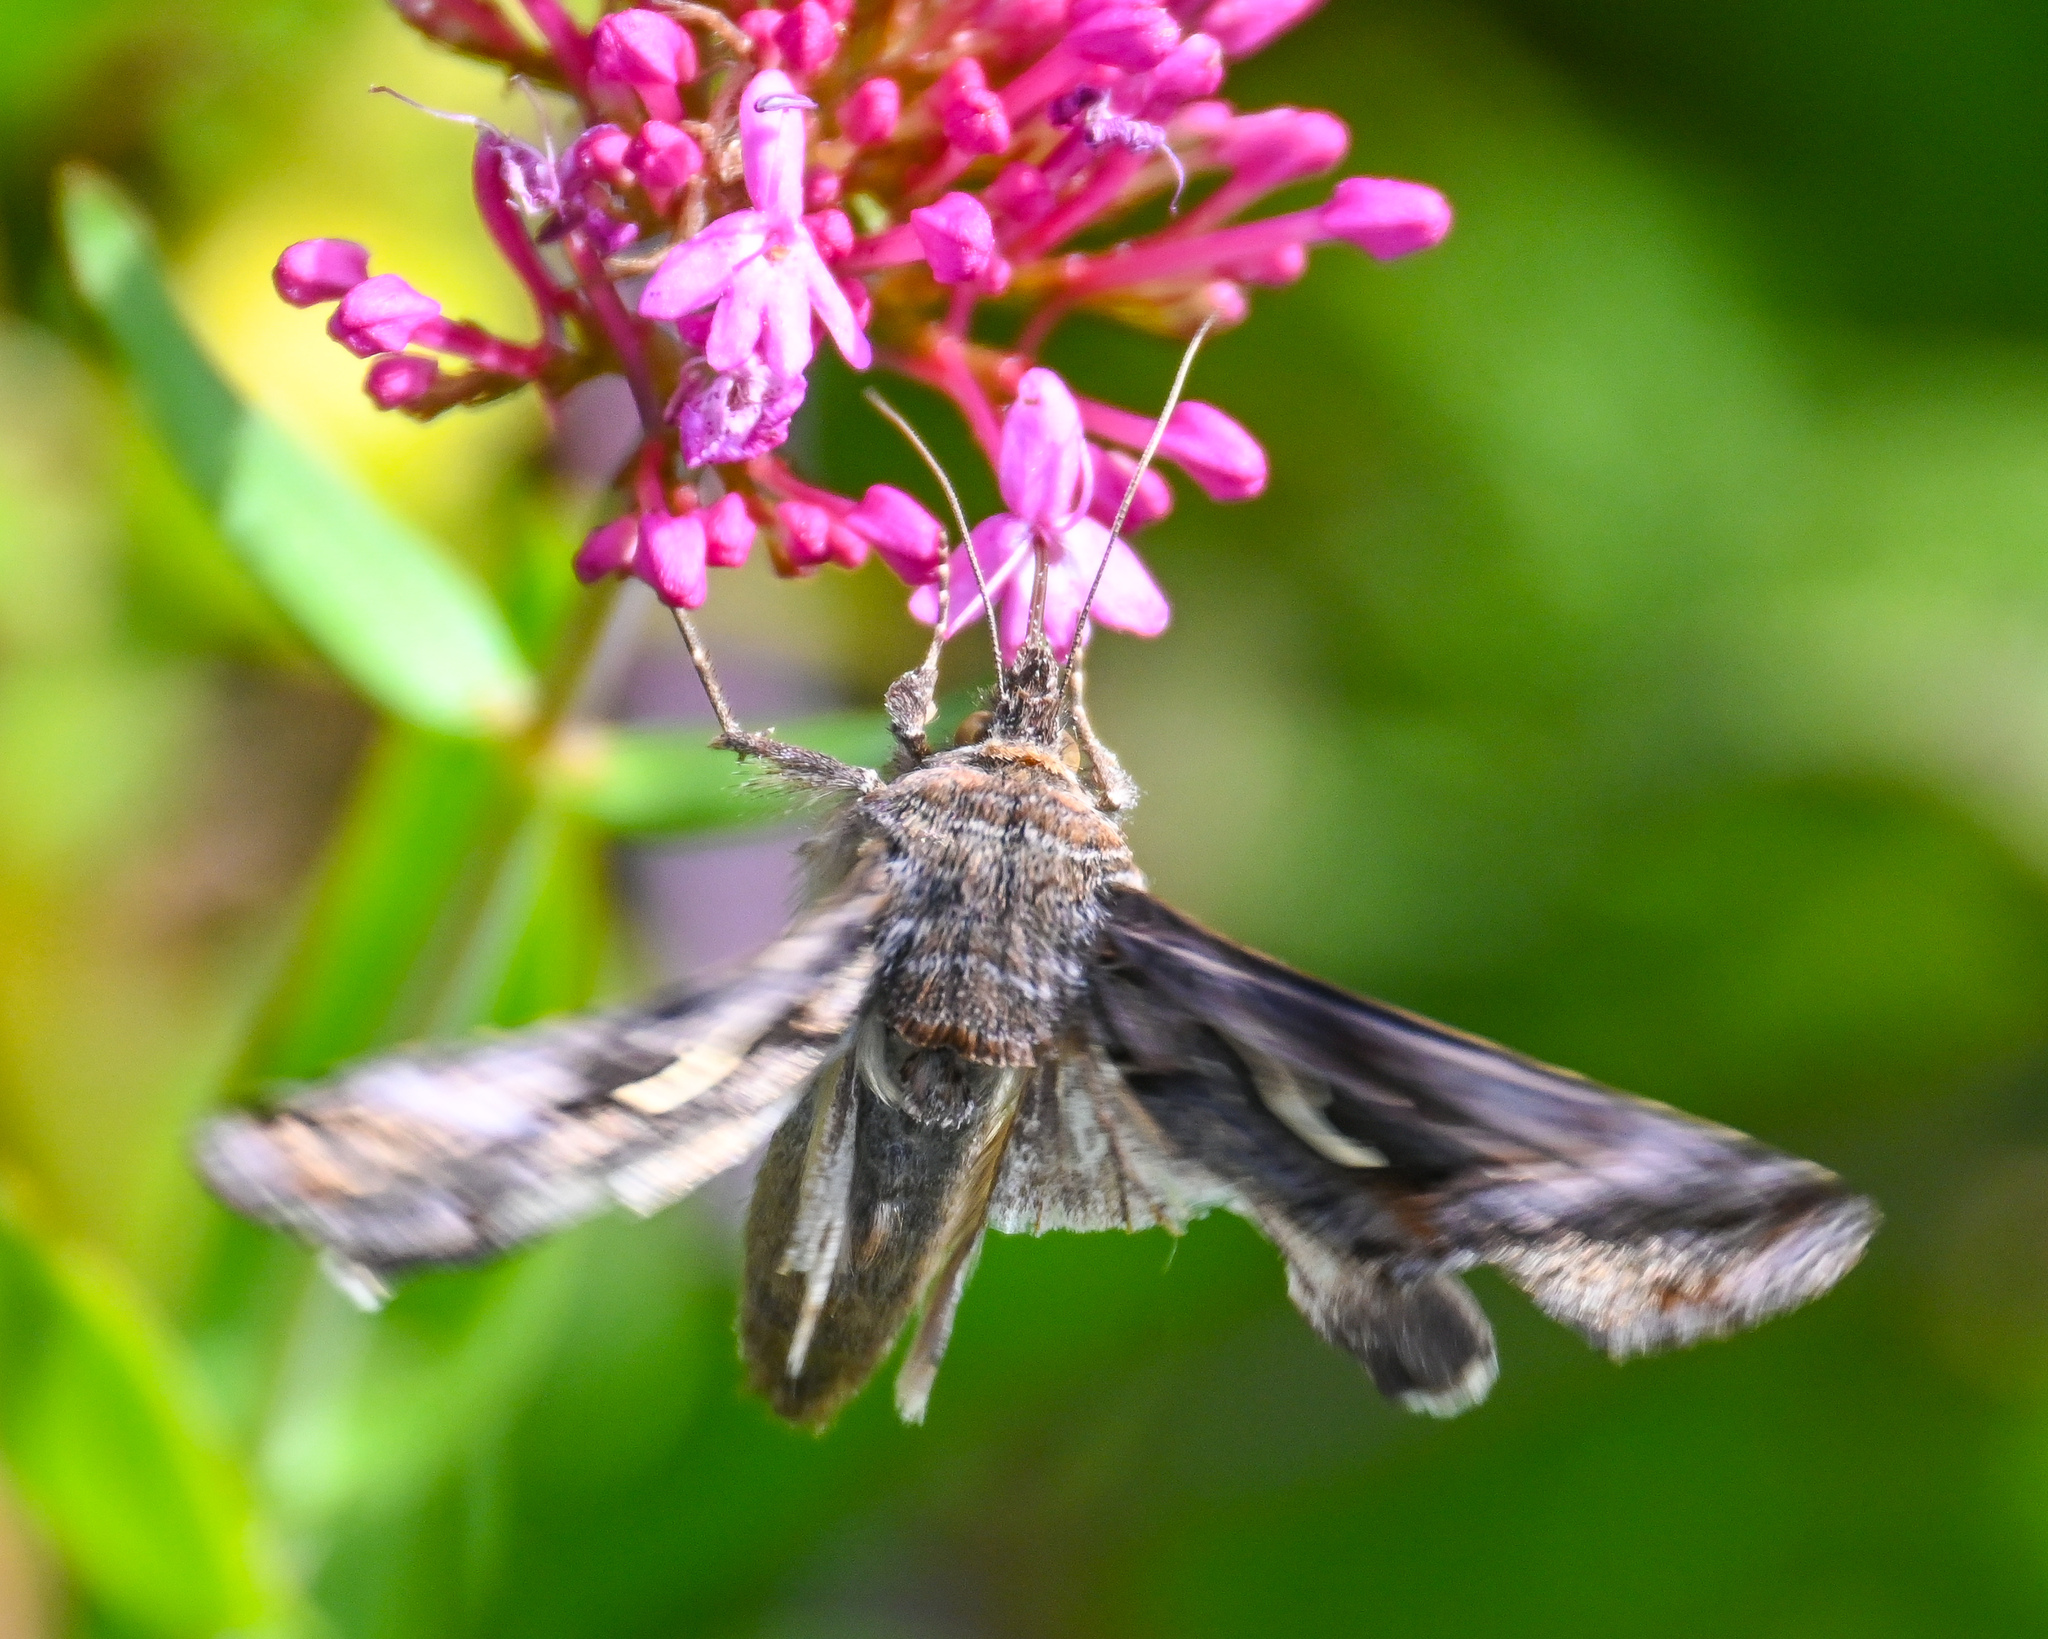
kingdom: Animalia
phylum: Arthropoda
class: Insecta
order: Lepidoptera
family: Noctuidae
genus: Autographa
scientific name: Autographa gamma
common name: Silver y
